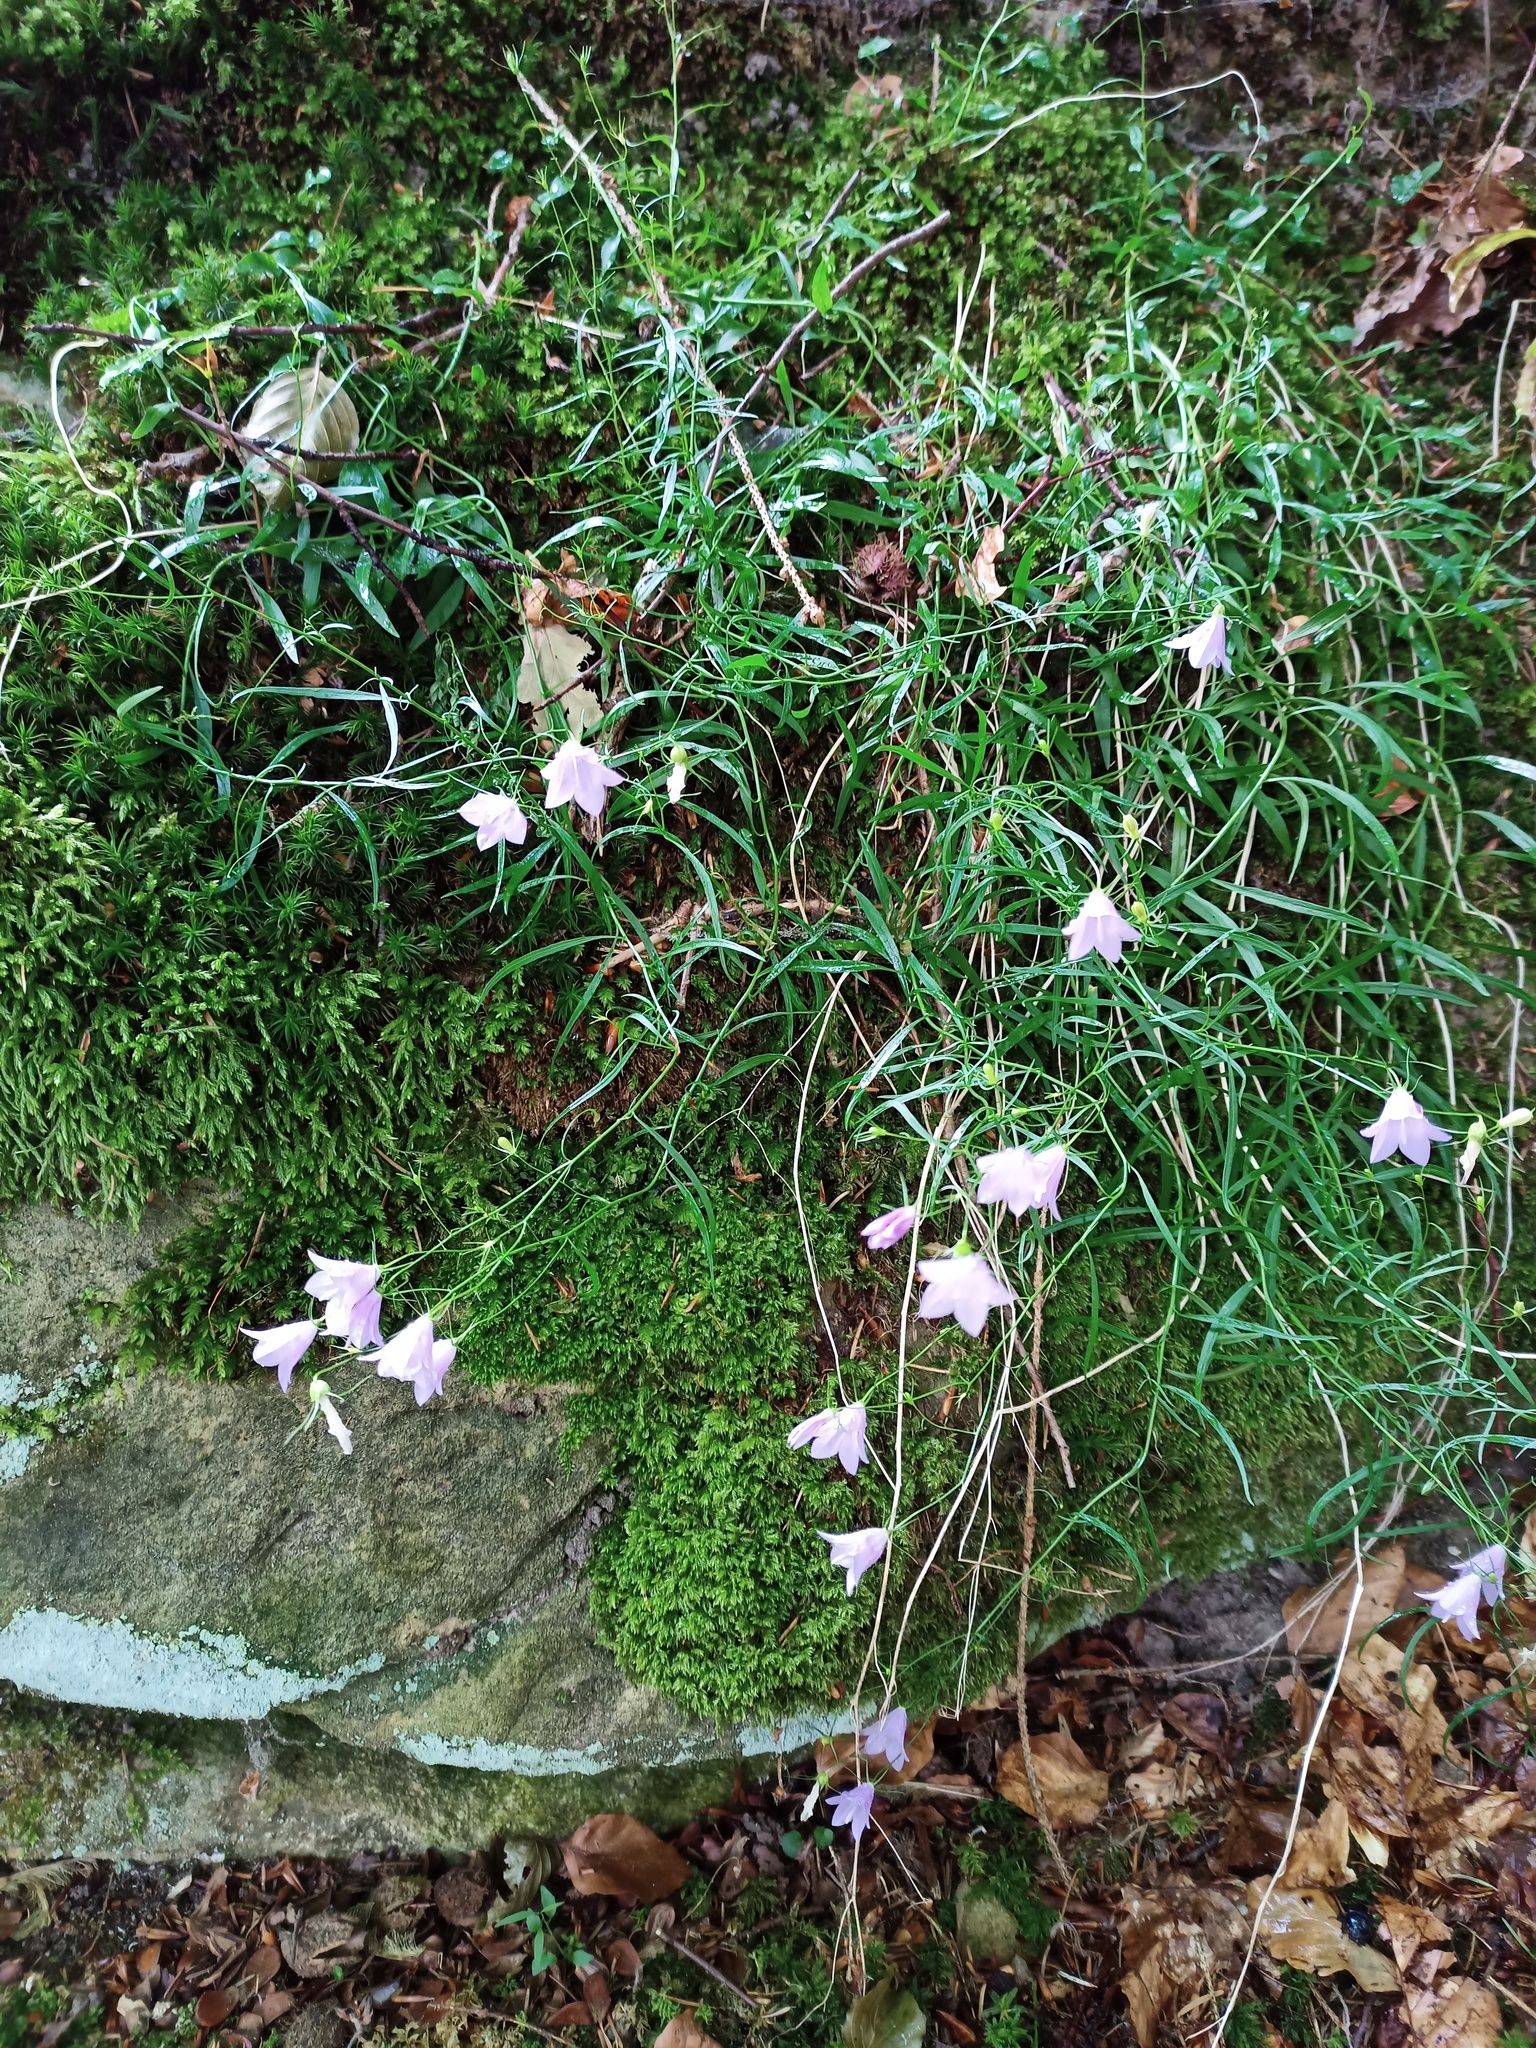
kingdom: Plantae
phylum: Tracheophyta
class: Magnoliopsida
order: Asterales
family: Campanulaceae
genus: Campanula
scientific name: Campanula rotundifolia
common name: Harebell
